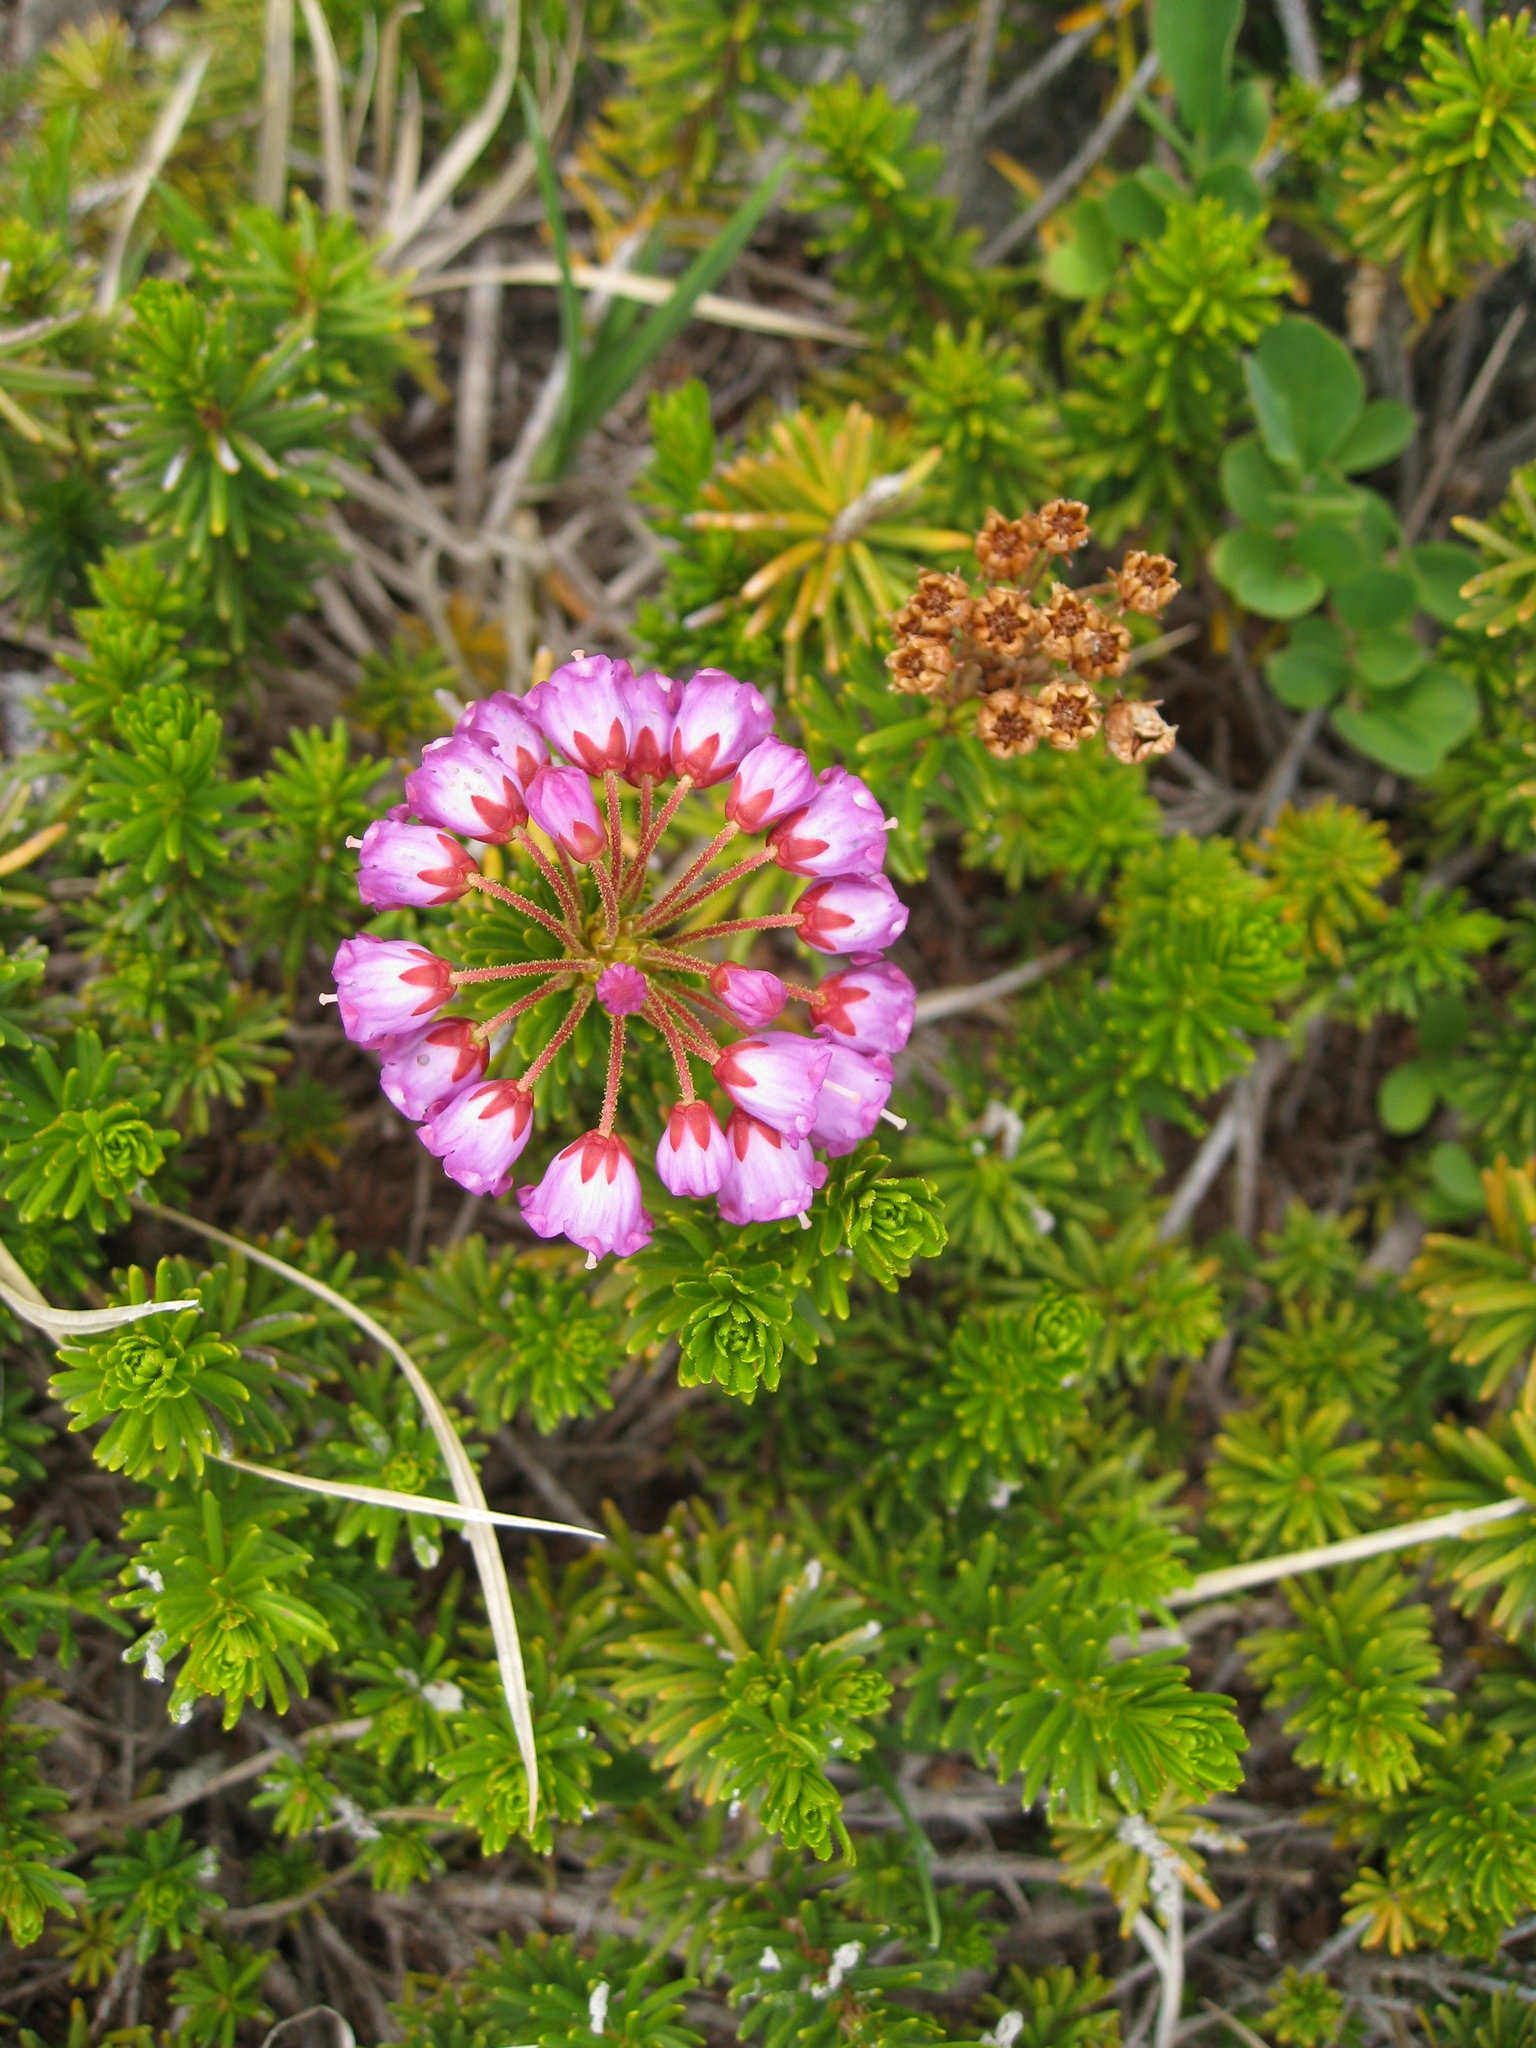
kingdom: Plantae
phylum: Tracheophyta
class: Magnoliopsida
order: Ericales
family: Ericaceae
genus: Phyllodoce
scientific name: Phyllodoce empetriformis
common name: Pink mountain heather
